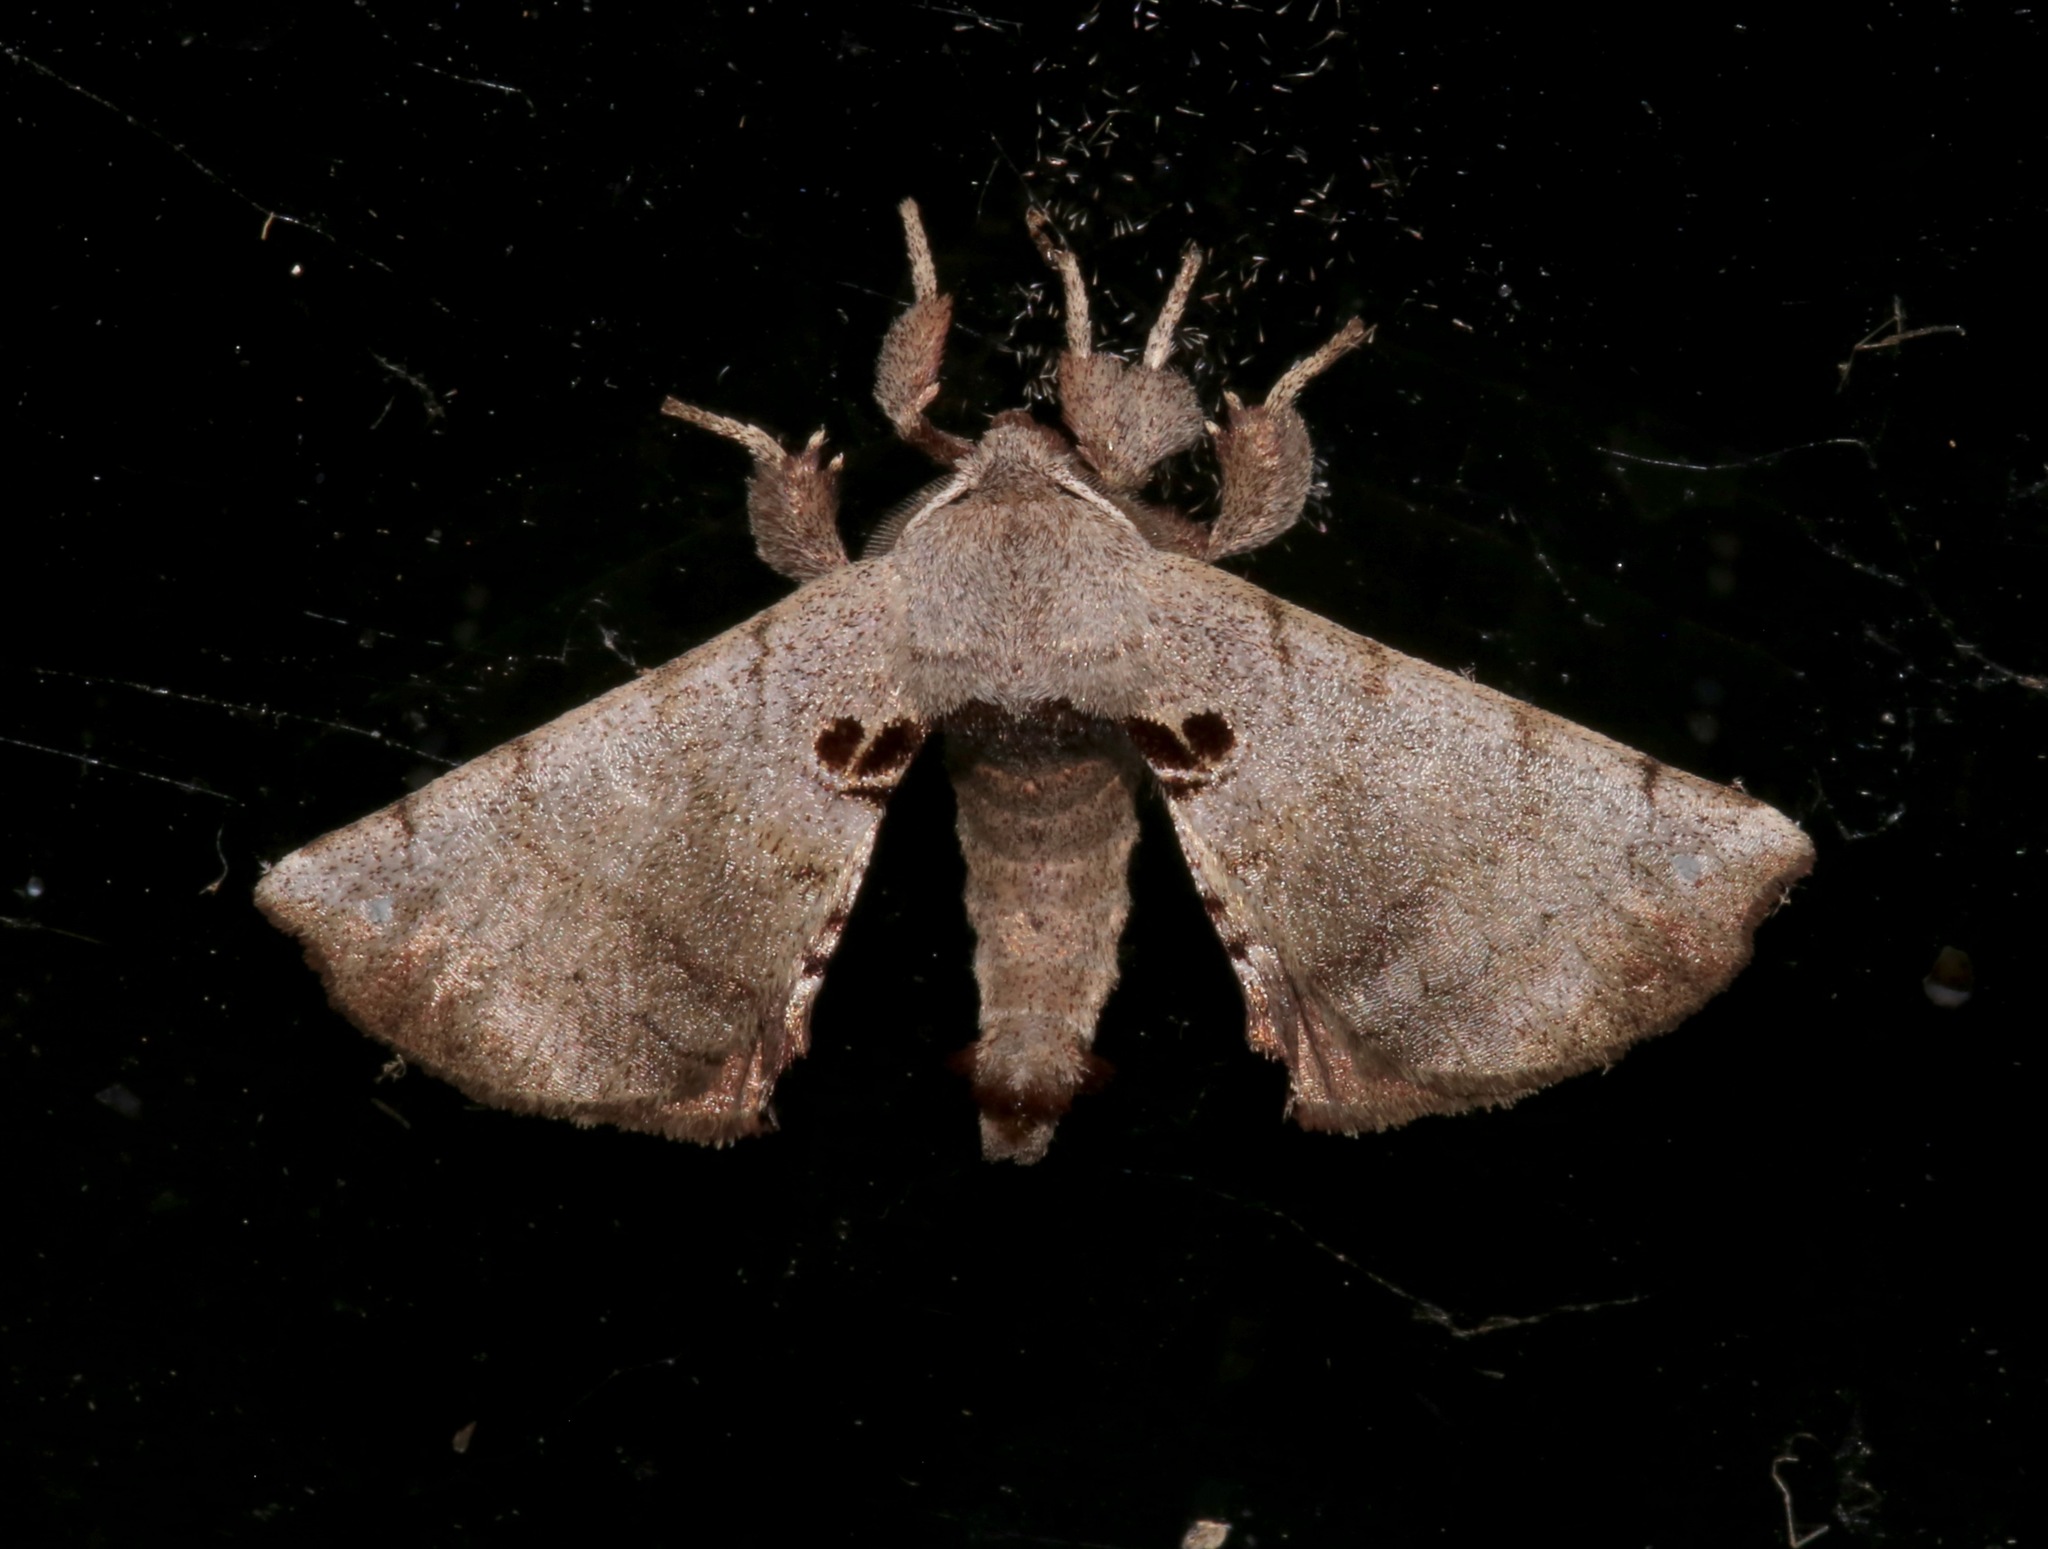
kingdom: Animalia
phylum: Arthropoda
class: Insecta
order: Lepidoptera
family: Apatelodidae
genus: Hygrochroa
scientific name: Hygrochroa Apatelodes torrefacta
